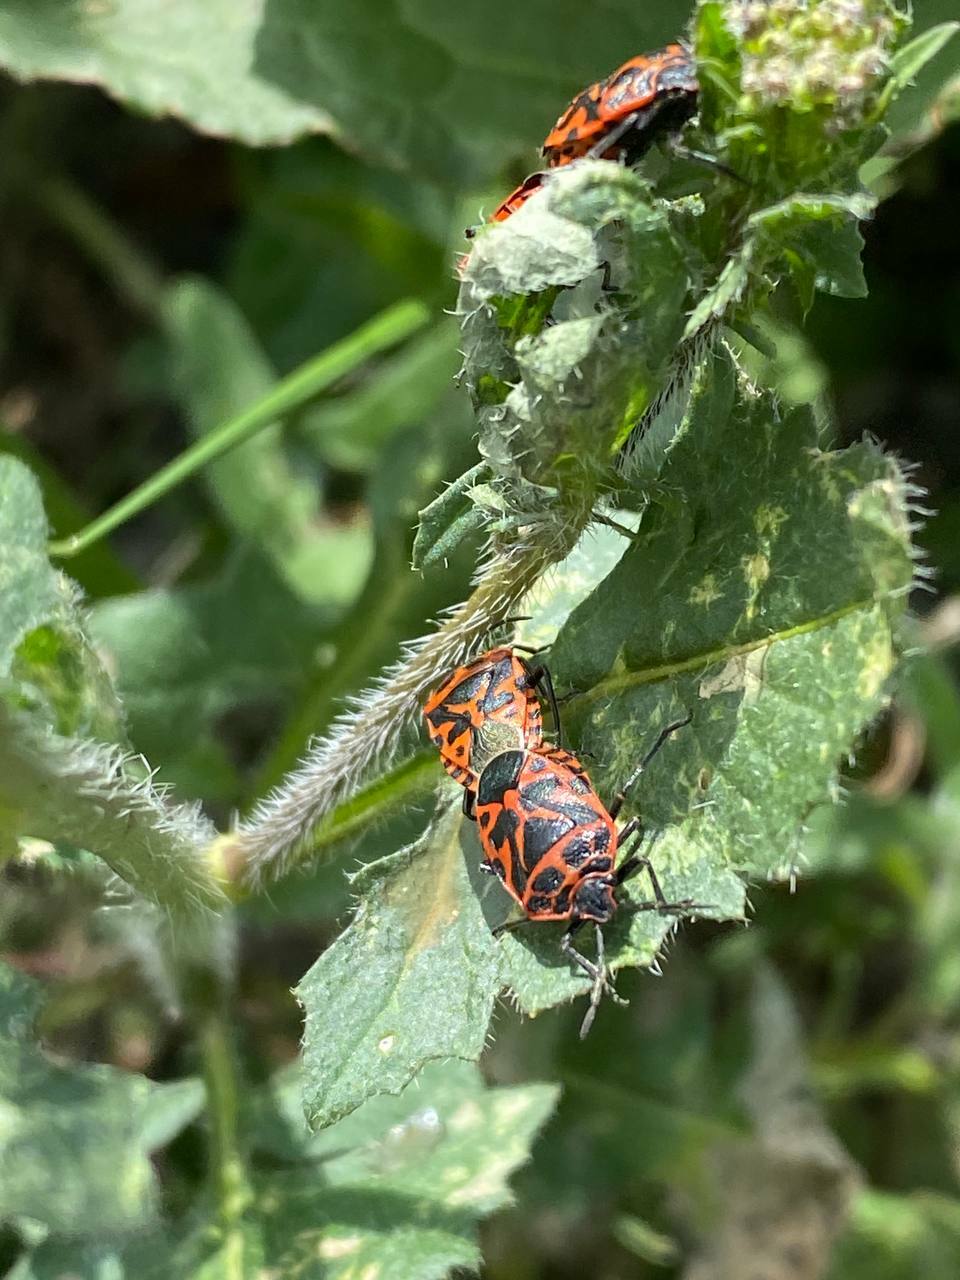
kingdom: Animalia
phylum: Arthropoda
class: Insecta
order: Hemiptera
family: Pentatomidae
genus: Eurydema
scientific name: Eurydema ventralis
